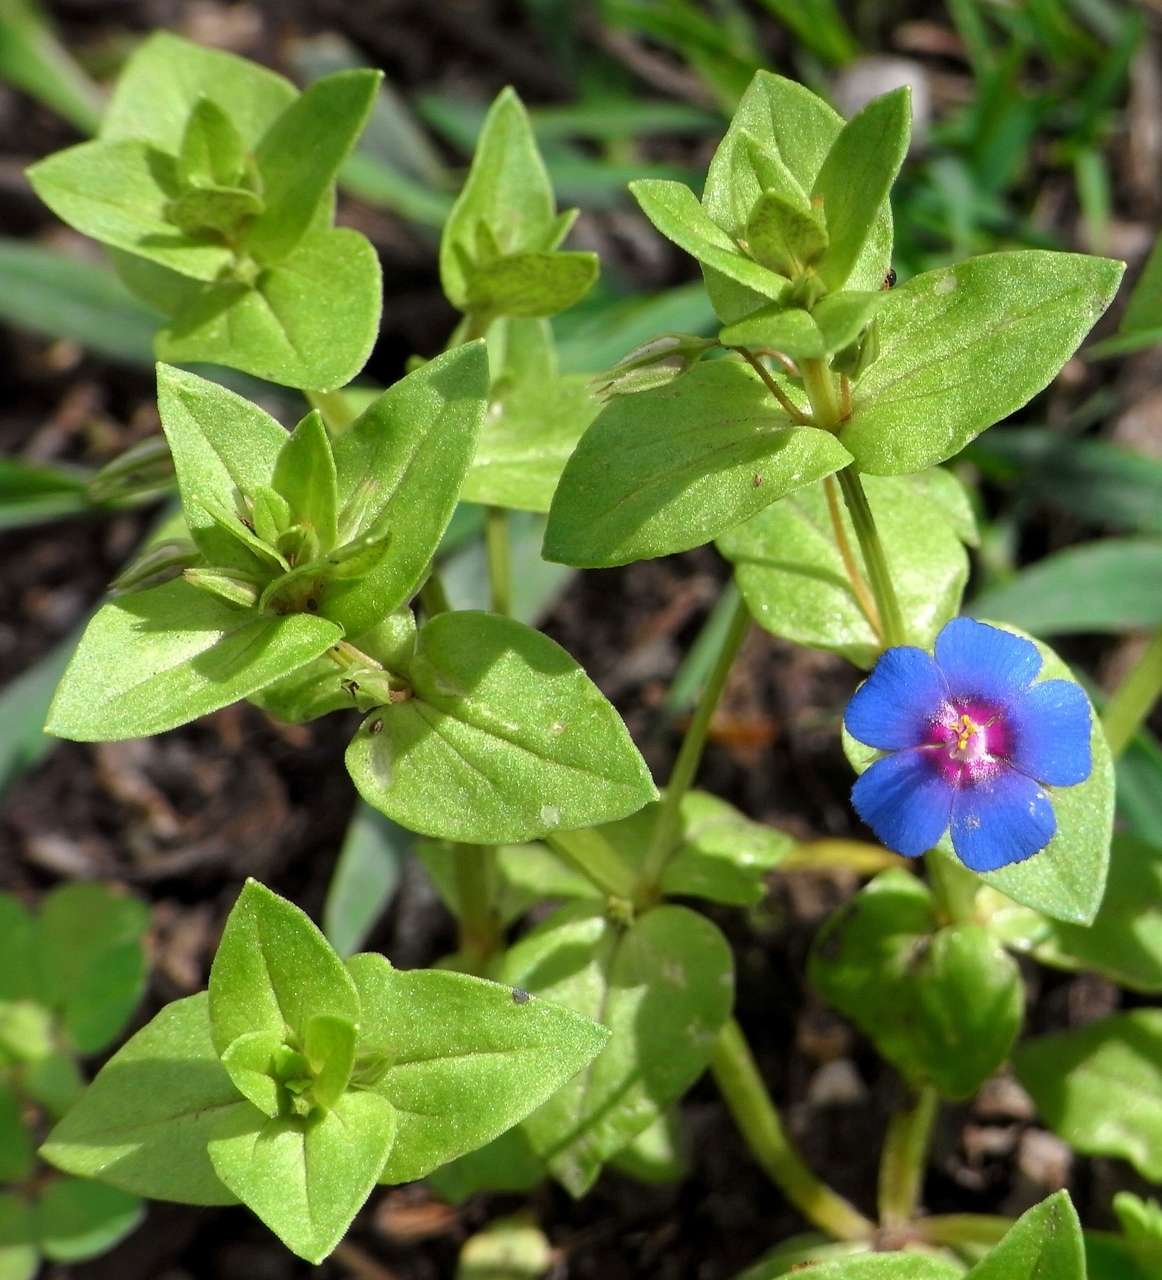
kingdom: Plantae
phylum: Tracheophyta
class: Magnoliopsida
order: Ericales
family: Primulaceae
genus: Lysimachia
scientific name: Lysimachia loeflingii
